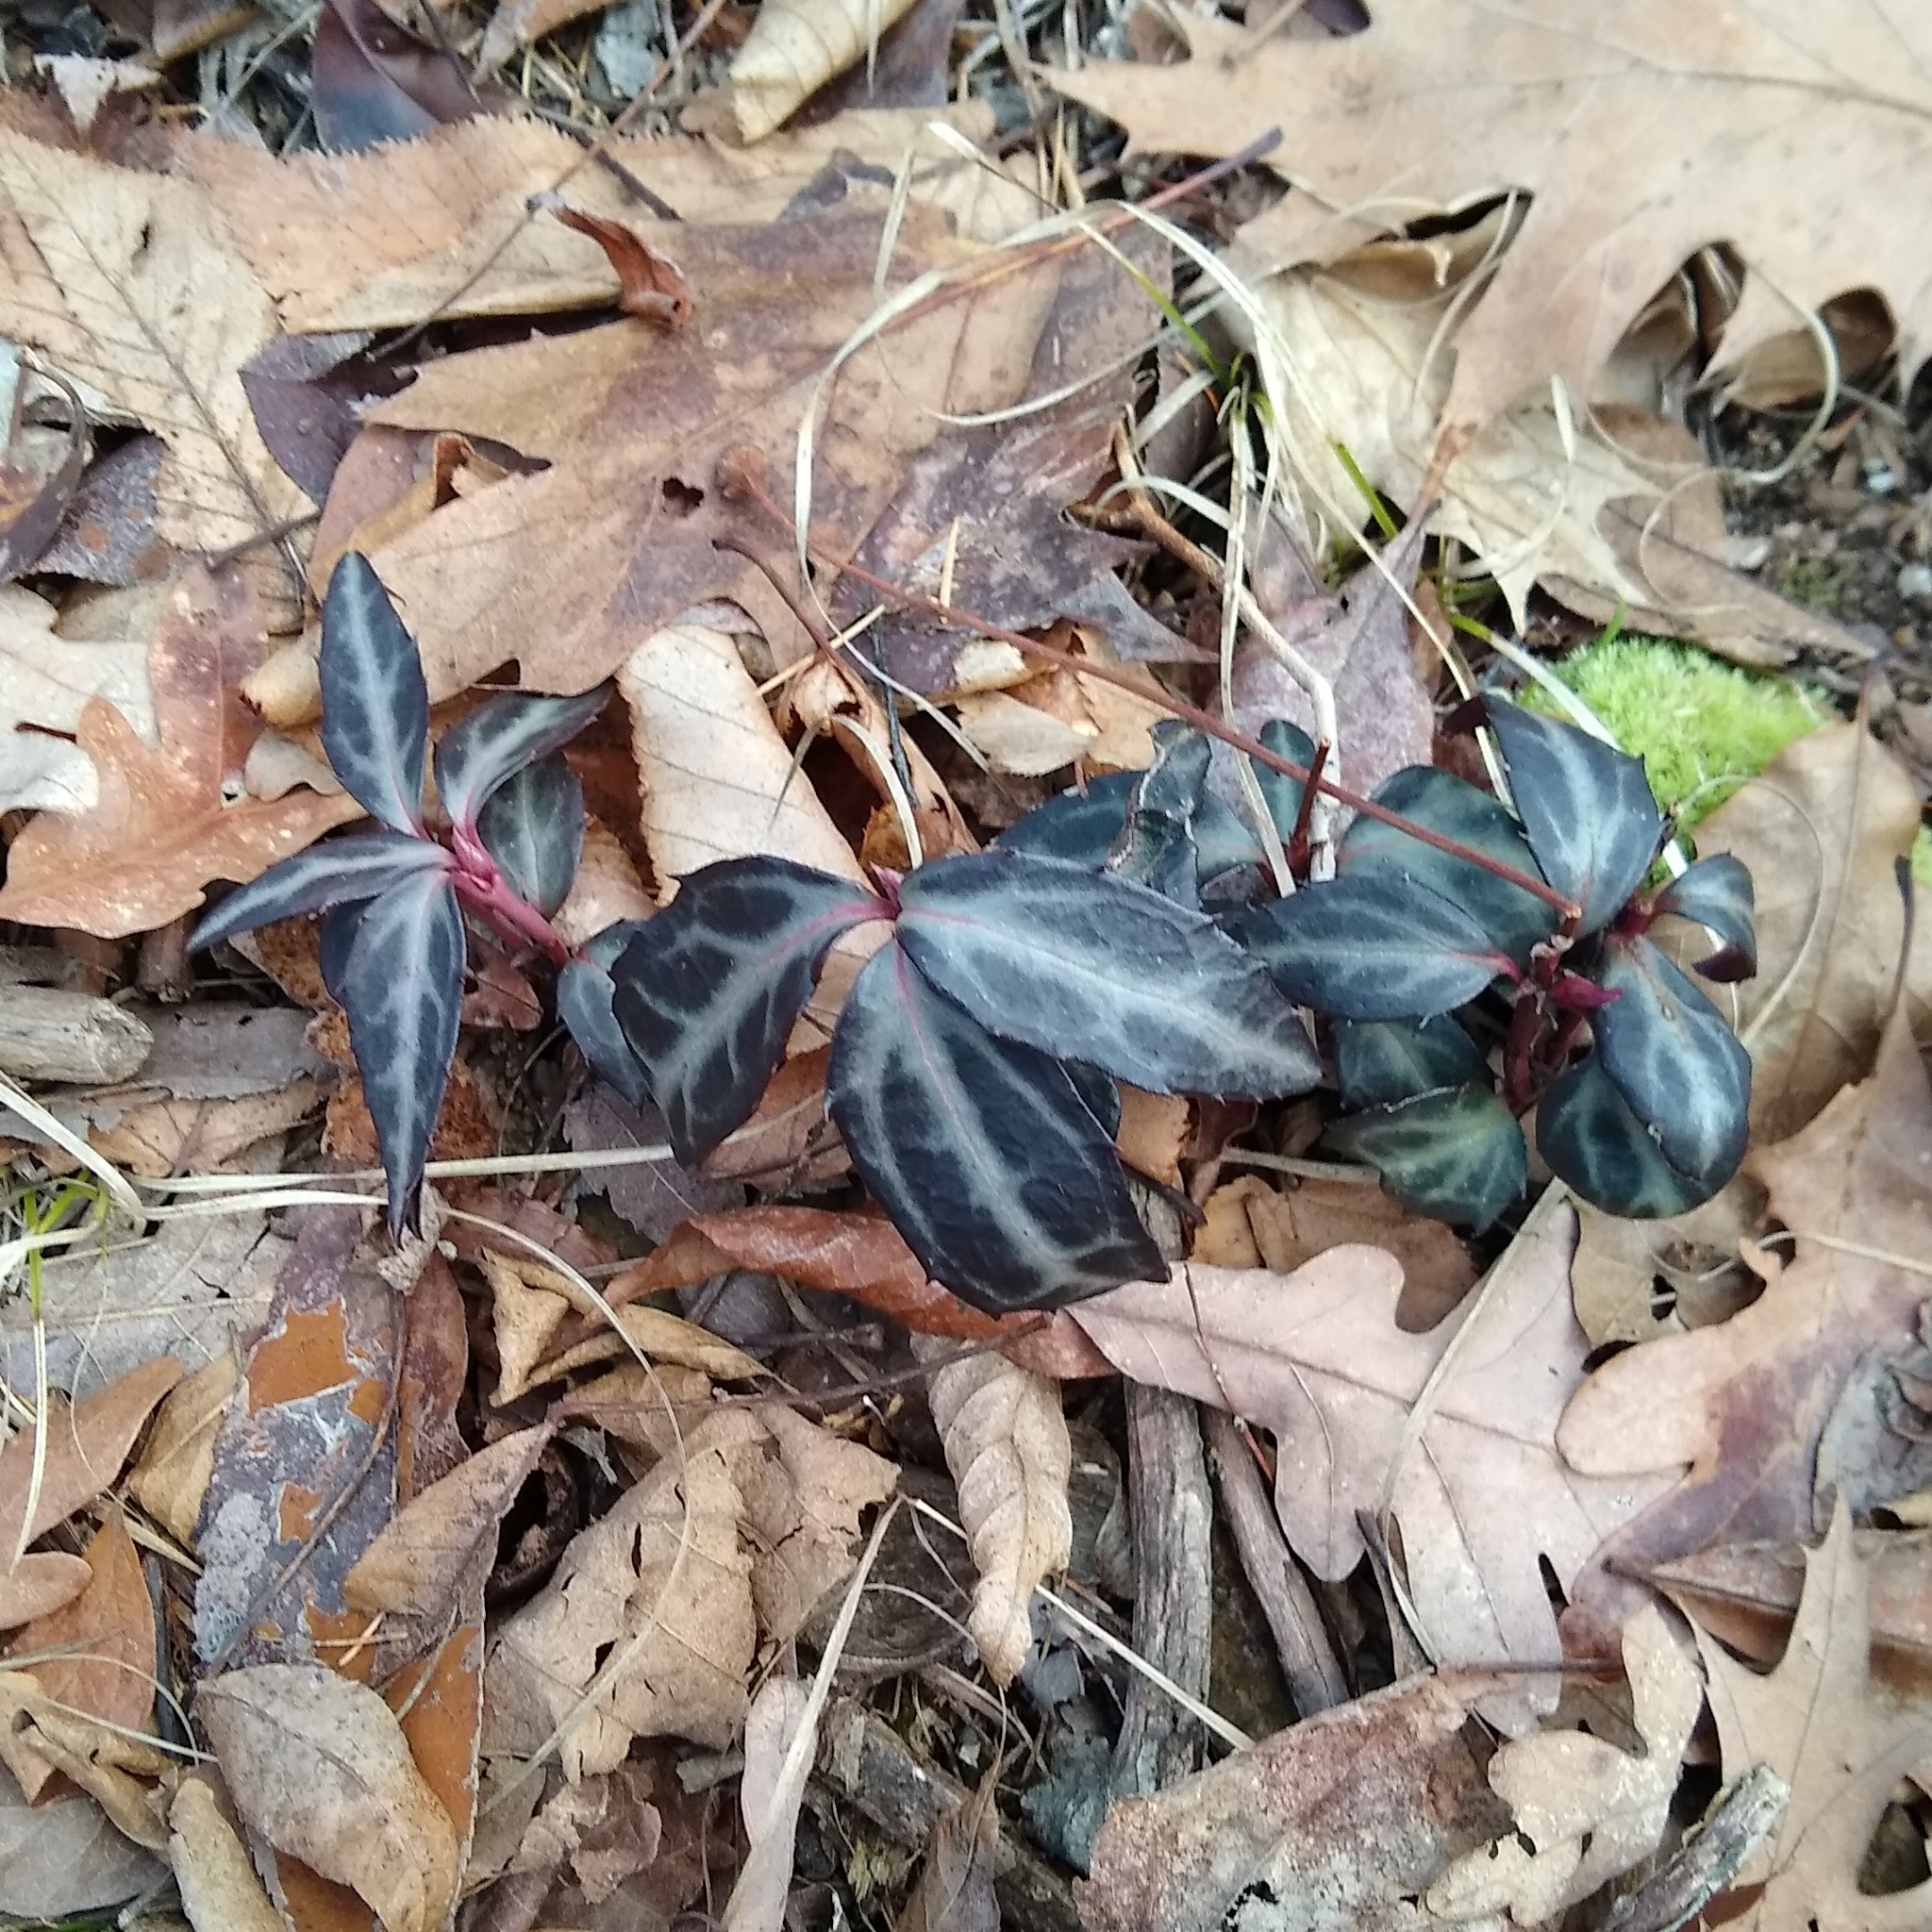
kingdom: Plantae
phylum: Tracheophyta
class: Magnoliopsida
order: Ericales
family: Ericaceae
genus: Chimaphila
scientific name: Chimaphila maculata
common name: Spotted pipsissewa
